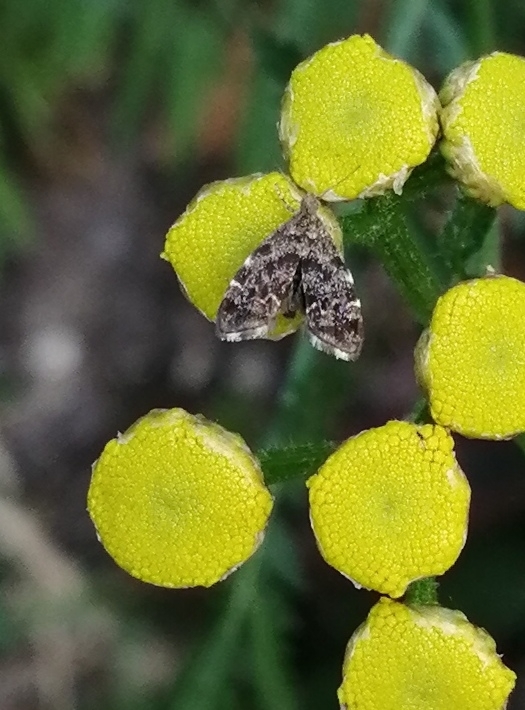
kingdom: Animalia
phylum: Arthropoda
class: Insecta
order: Lepidoptera
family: Choreutidae
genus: Anthophila
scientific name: Anthophila fabriciana
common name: Nettle-tap
